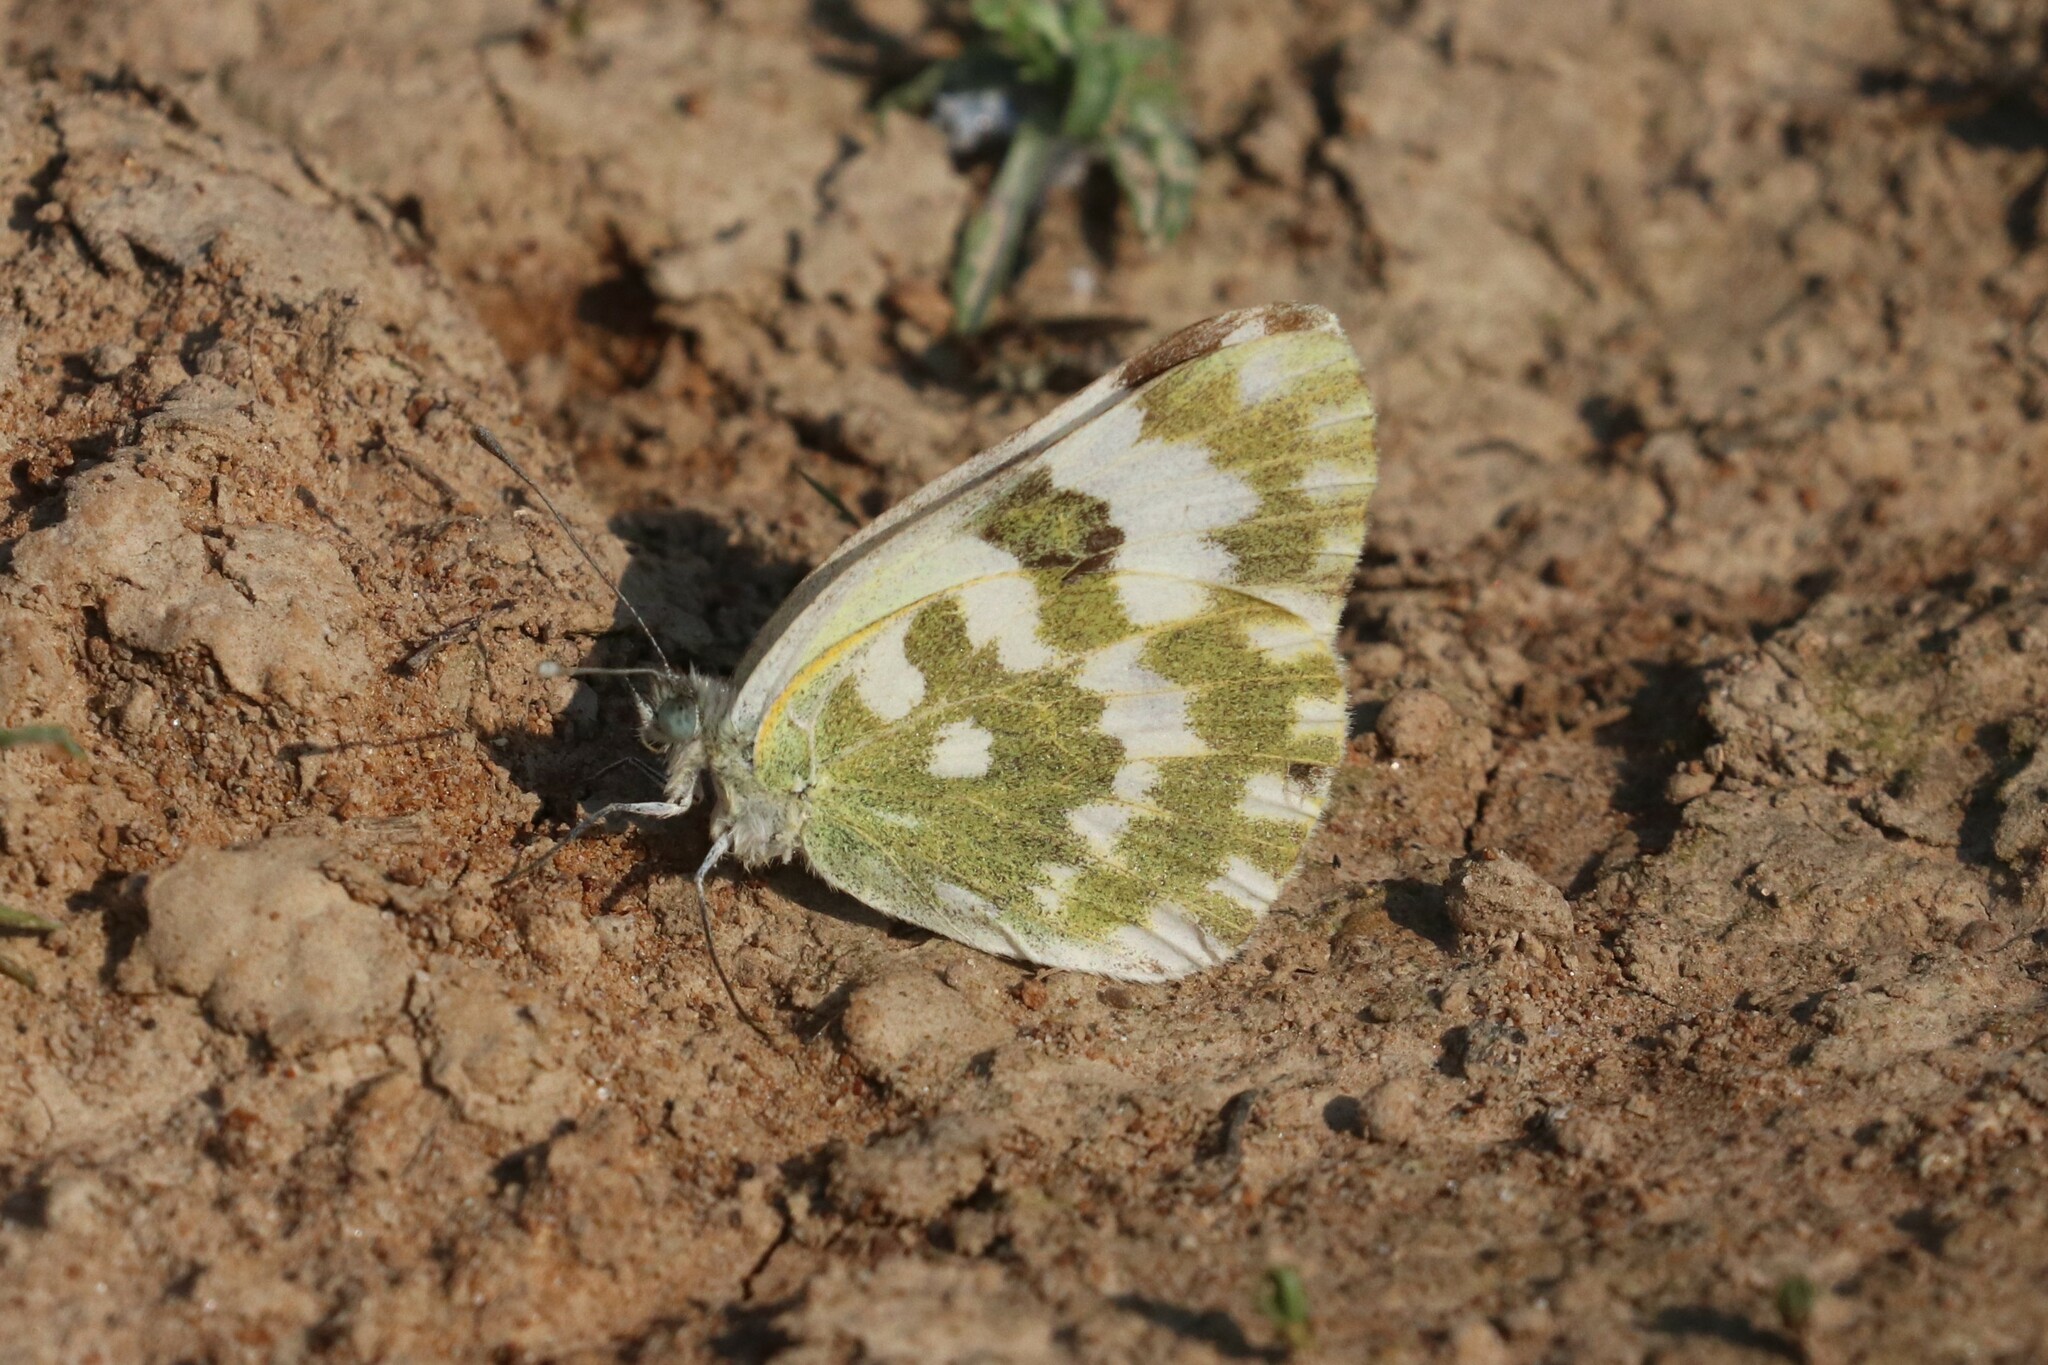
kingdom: Animalia
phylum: Arthropoda
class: Insecta
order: Lepidoptera
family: Pieridae
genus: Pontia
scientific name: Pontia edusa
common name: Eastern bath white
